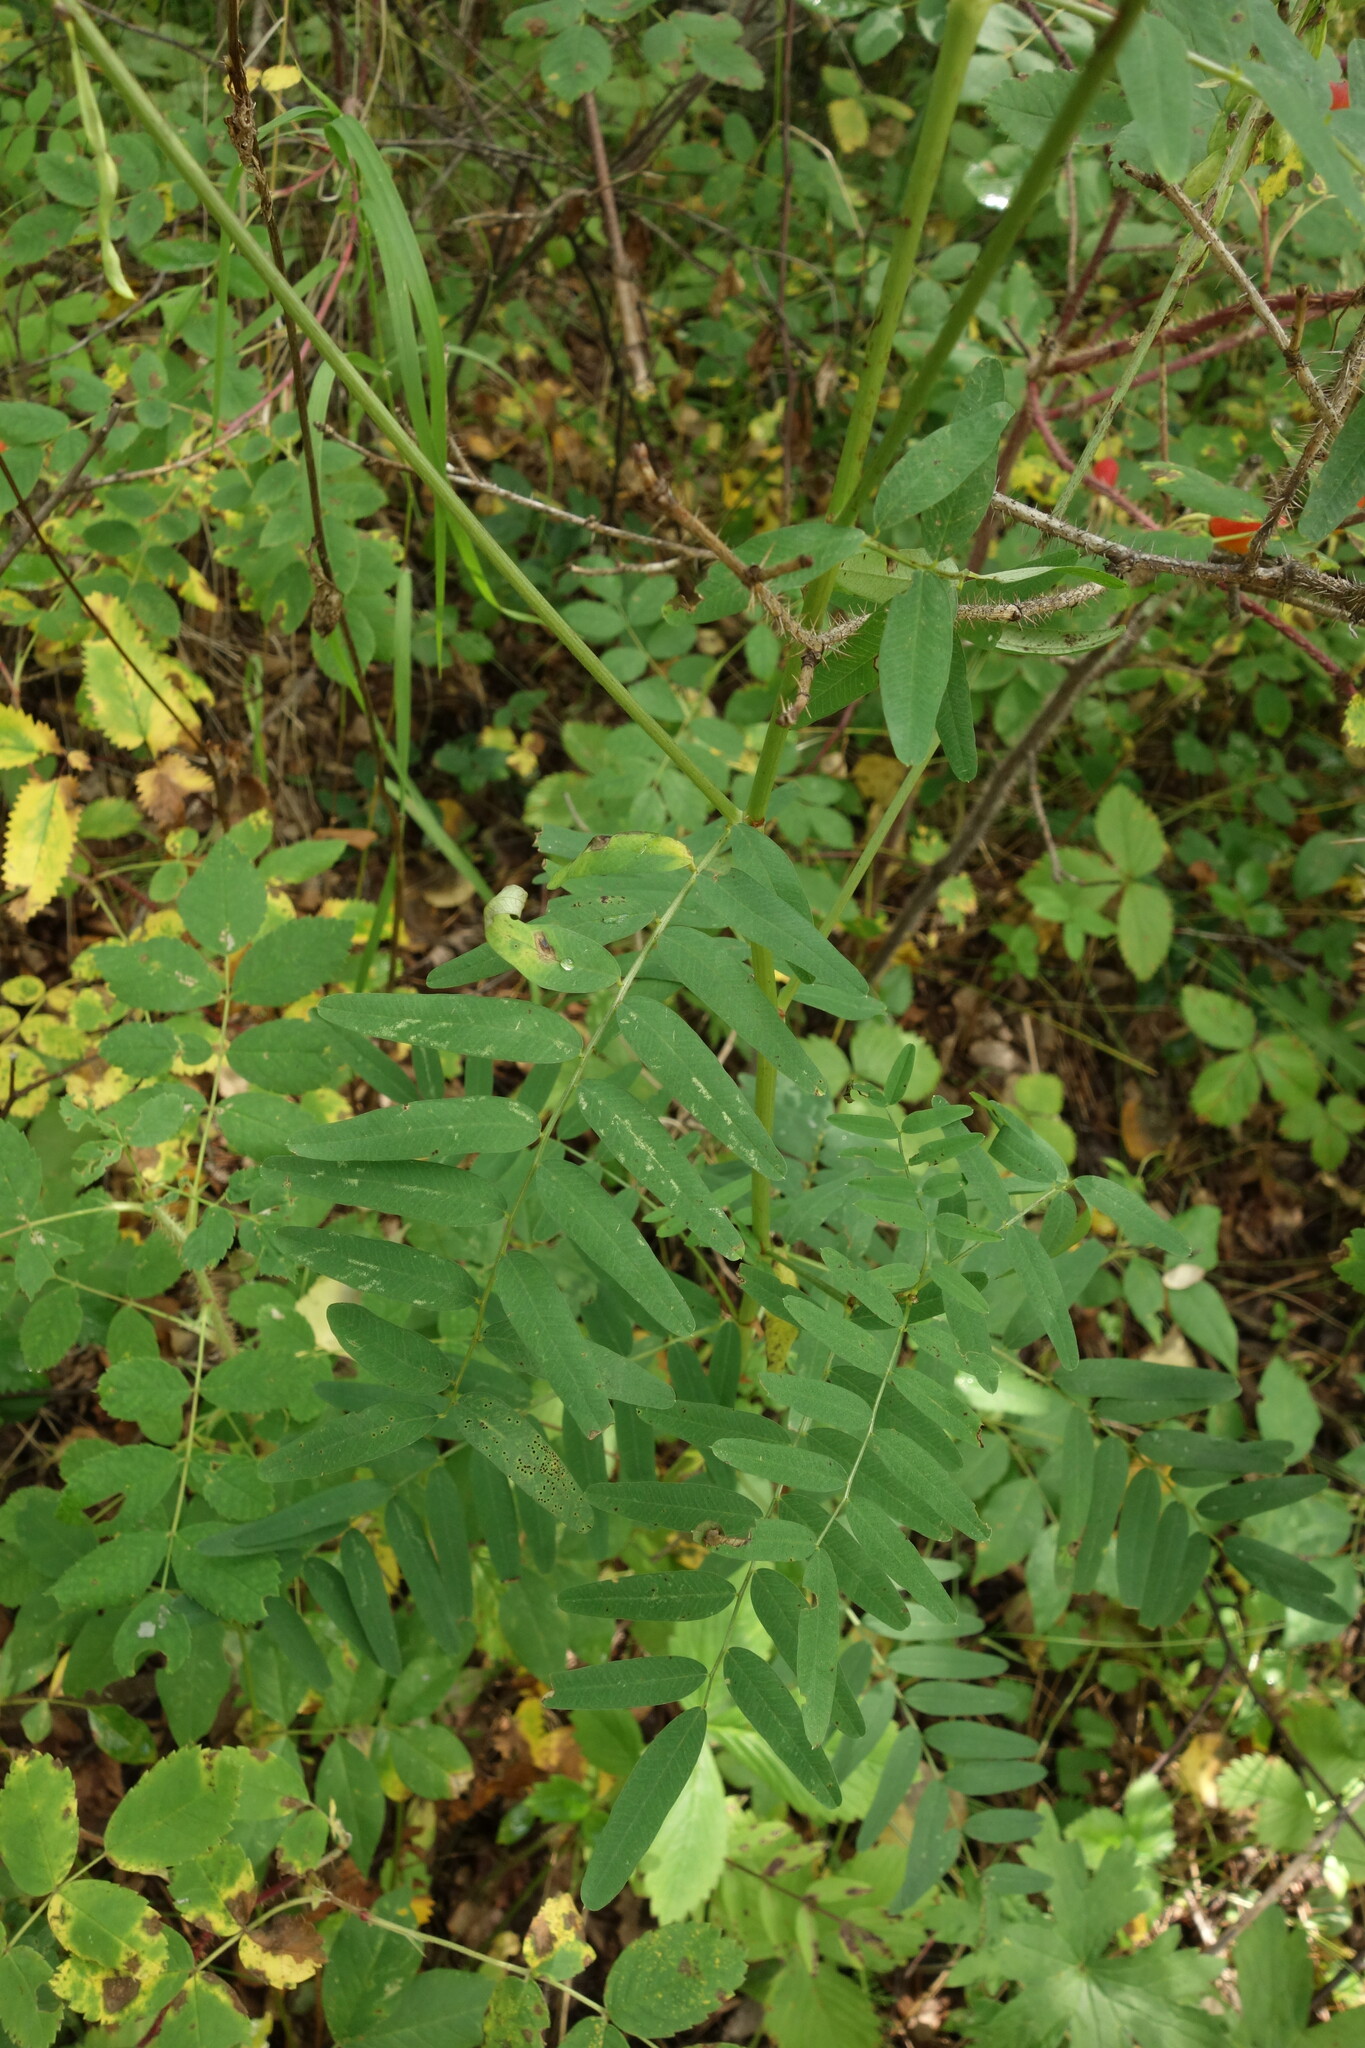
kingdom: Plantae
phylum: Tracheophyta
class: Magnoliopsida
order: Fabales
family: Fabaceae
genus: Hedysarum
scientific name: Hedysarum alpinum
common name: Alpine sweet-vetch
